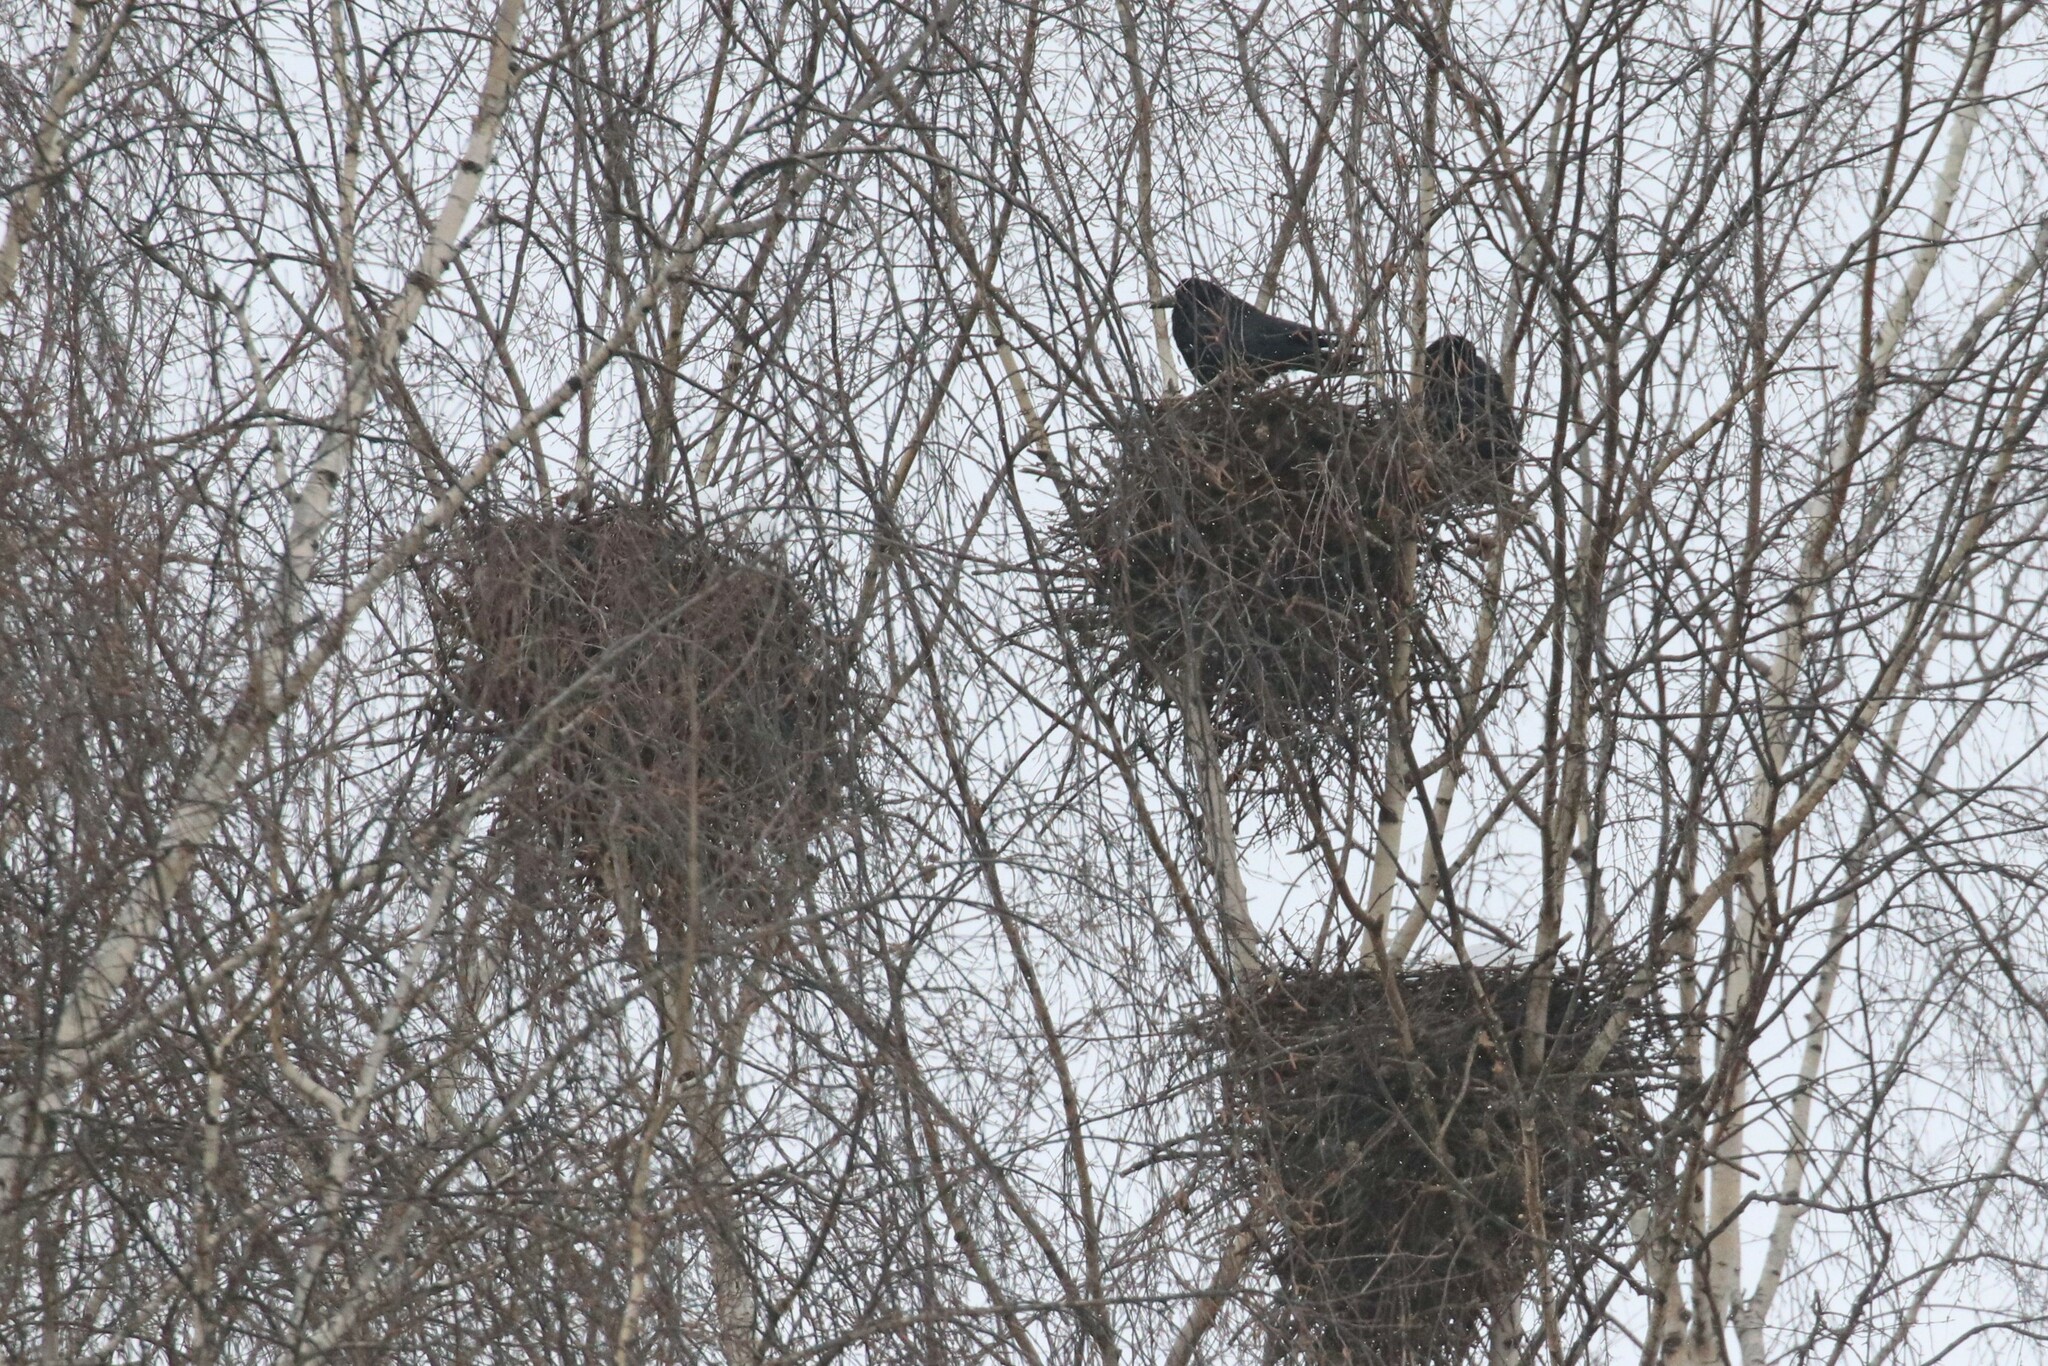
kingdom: Animalia
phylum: Chordata
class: Aves
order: Passeriformes
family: Corvidae
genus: Corvus
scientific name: Corvus frugilegus
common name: Rook
